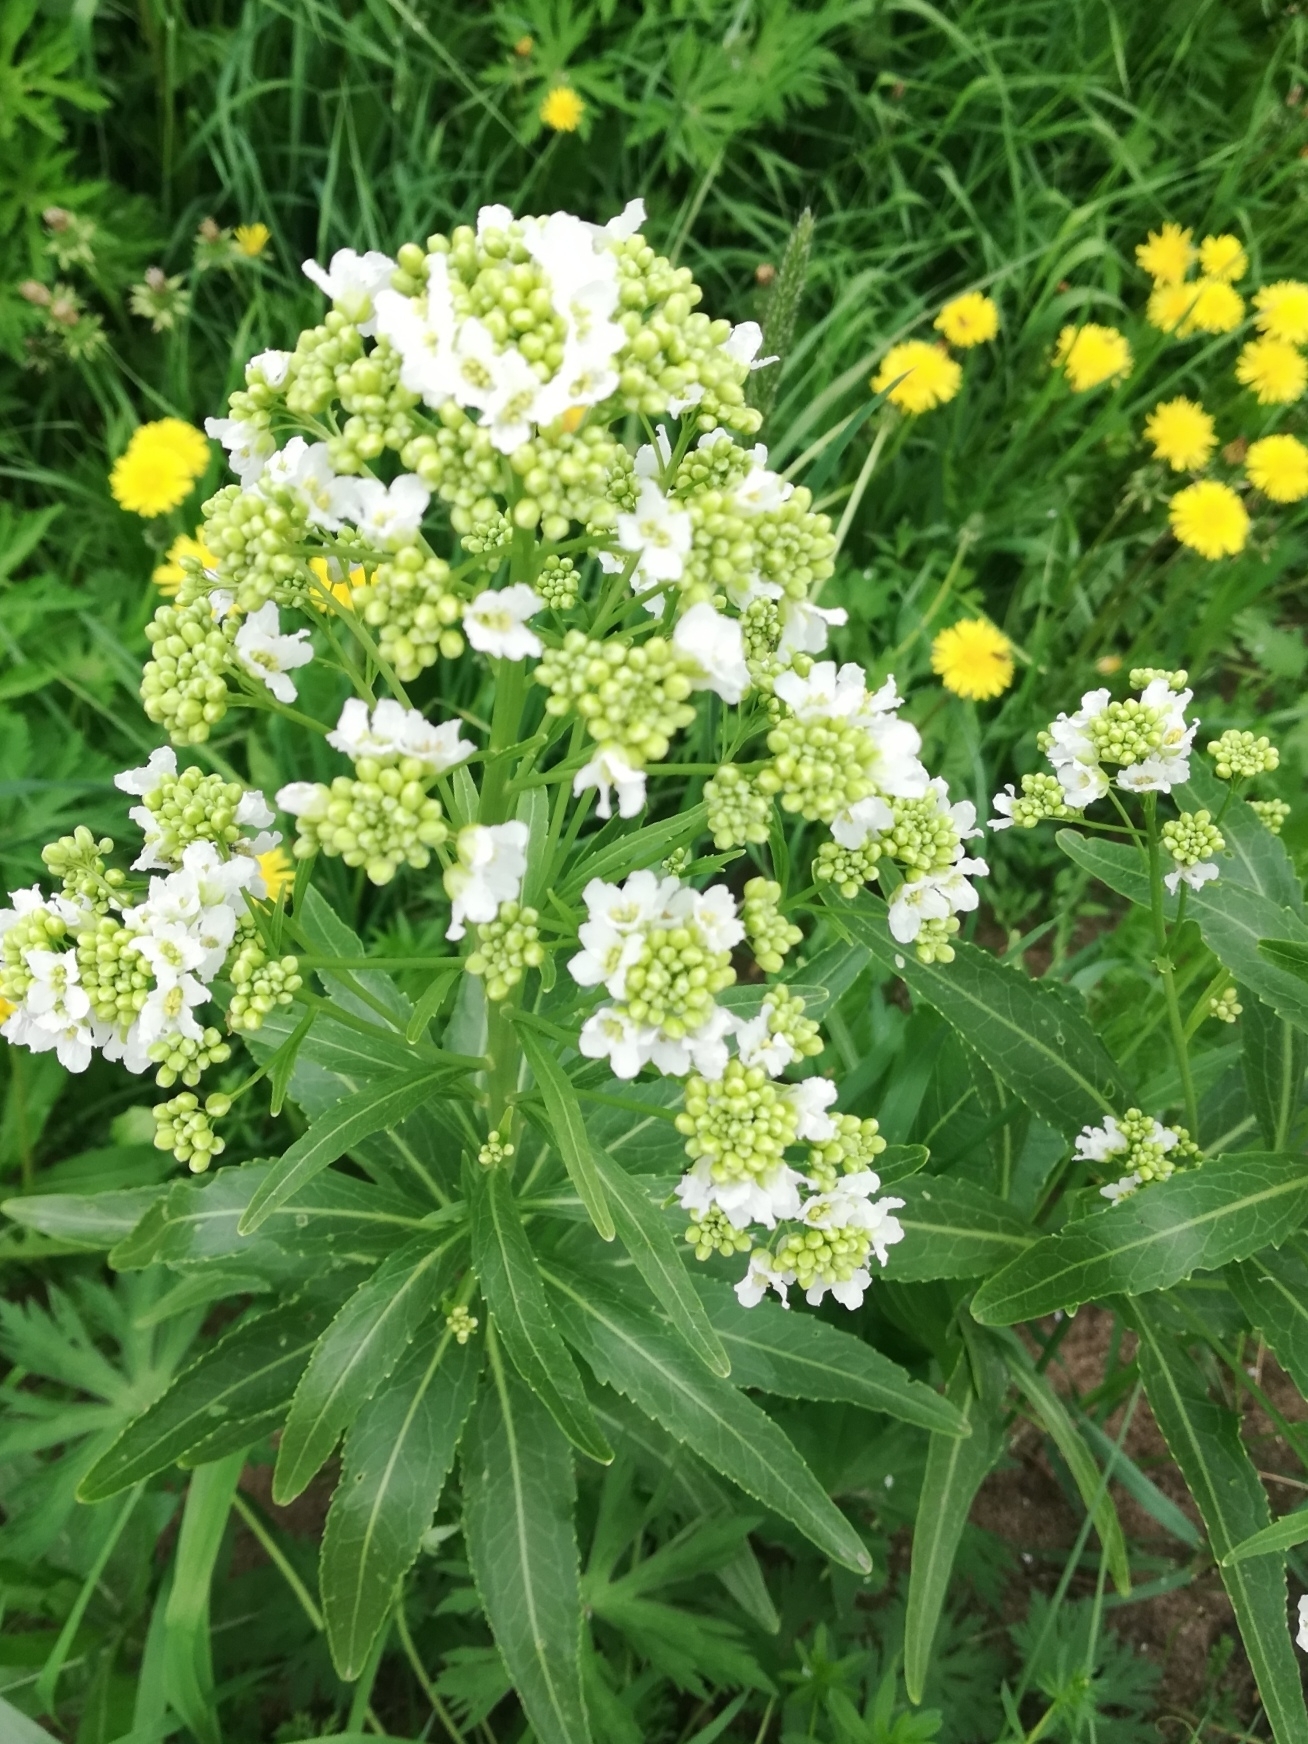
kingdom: Plantae
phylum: Tracheophyta
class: Magnoliopsida
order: Brassicales
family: Brassicaceae
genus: Armoracia
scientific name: Armoracia rusticana
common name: Horseradish
